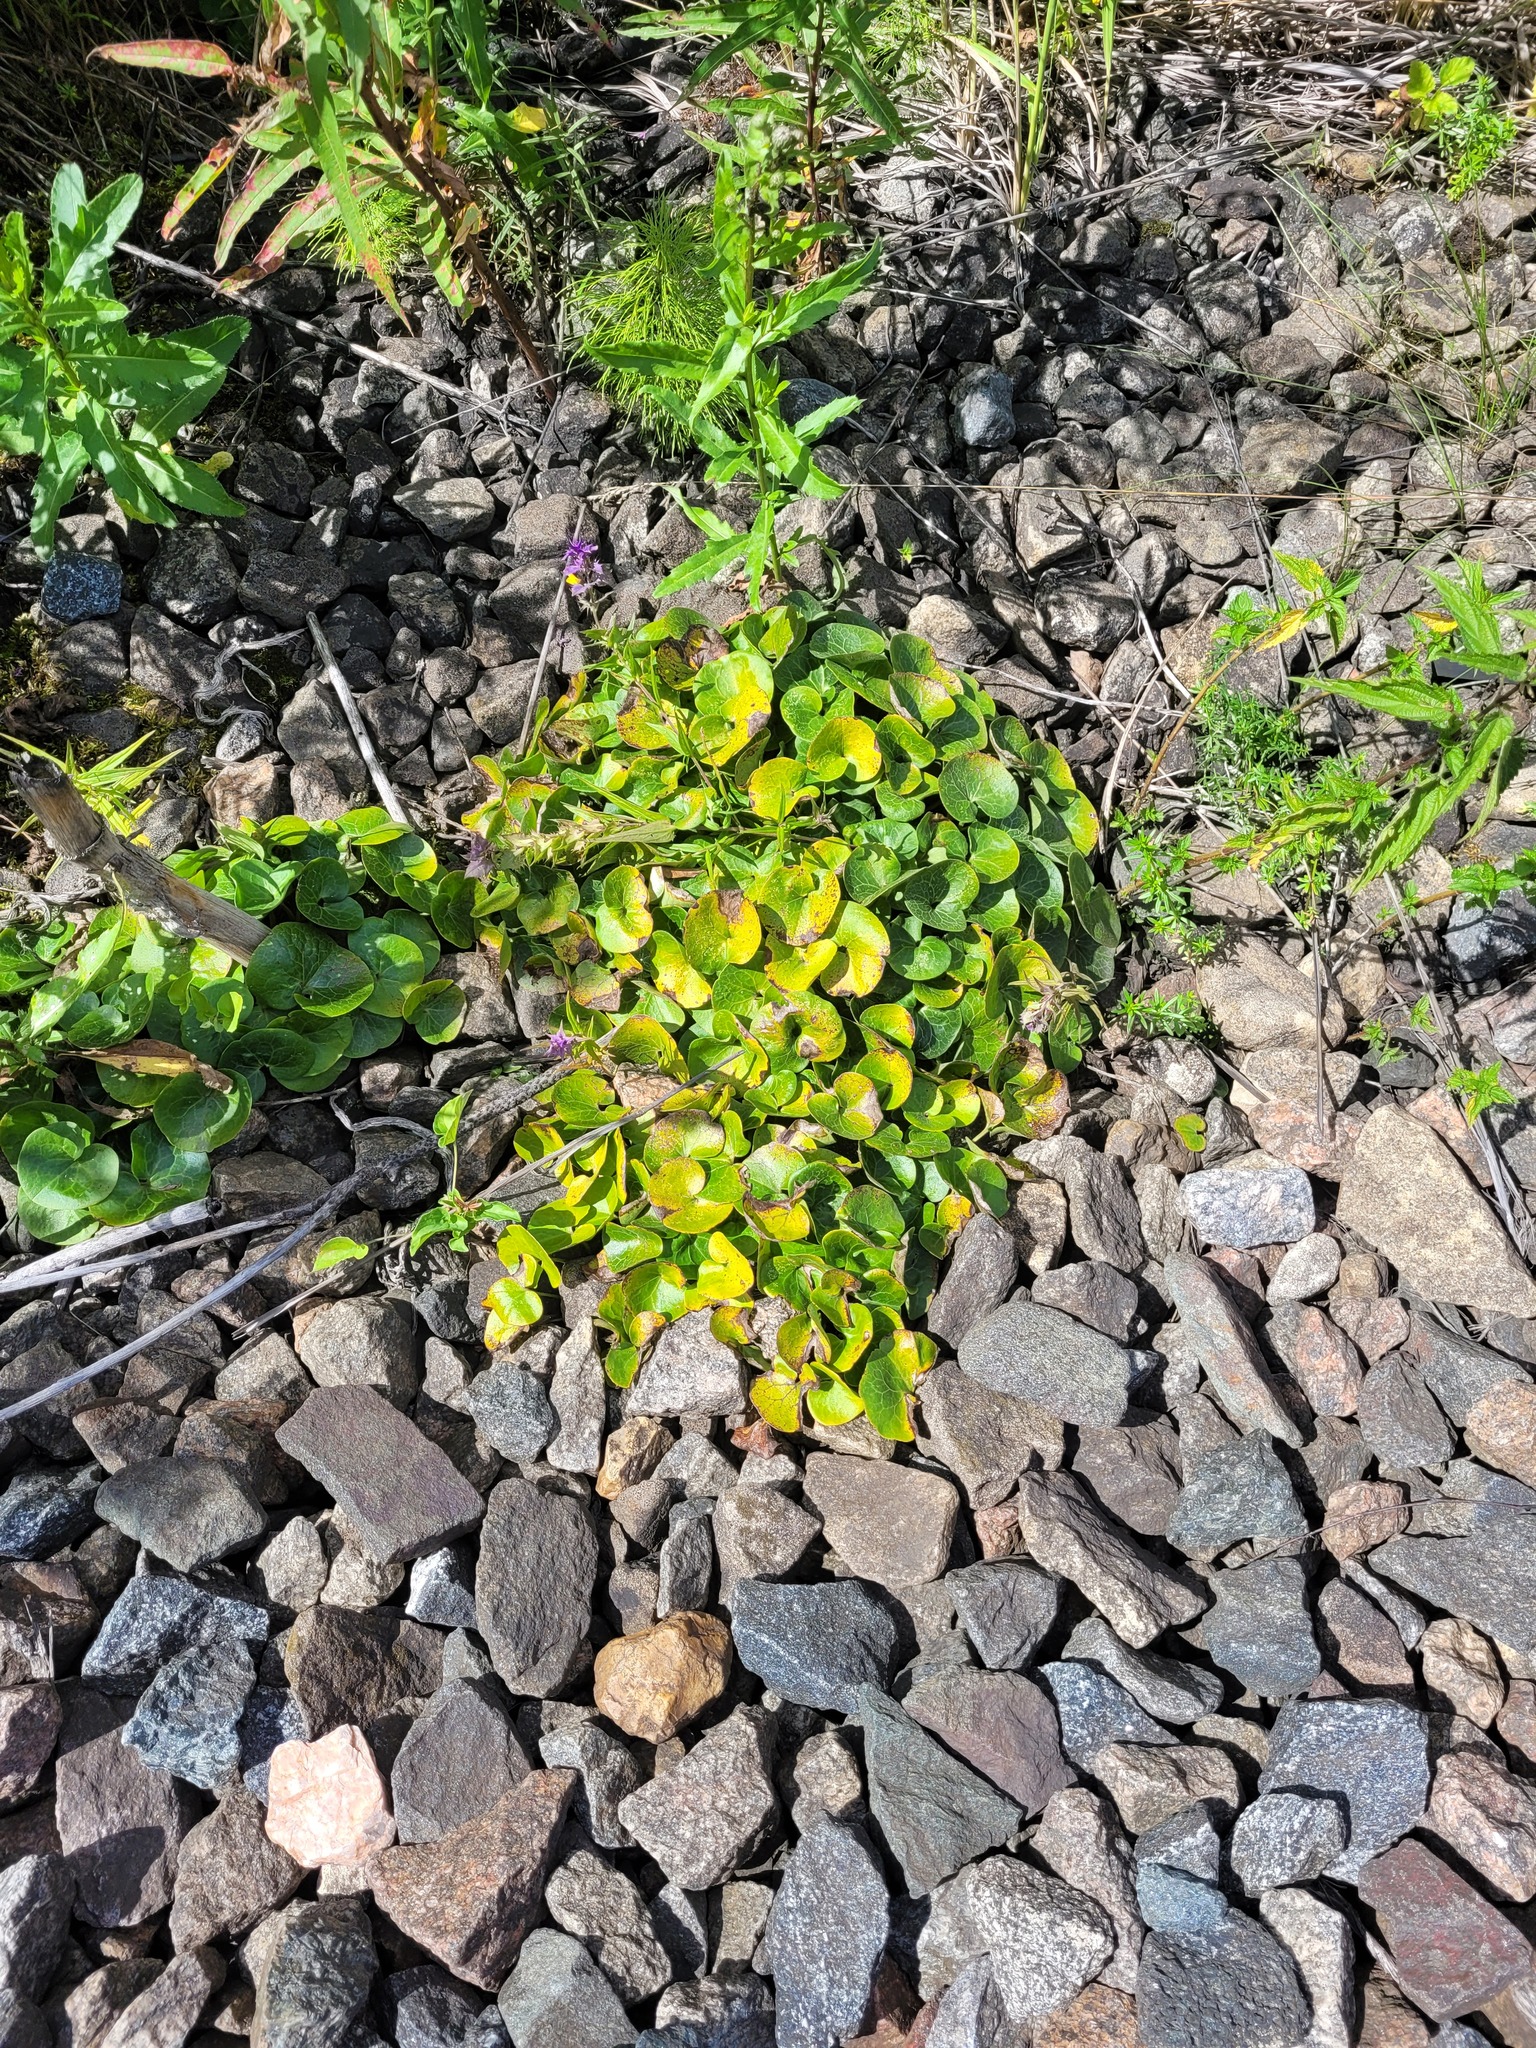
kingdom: Plantae
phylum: Tracheophyta
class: Magnoliopsida
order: Piperales
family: Aristolochiaceae
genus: Asarum
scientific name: Asarum europaeum
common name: Asarabacca
